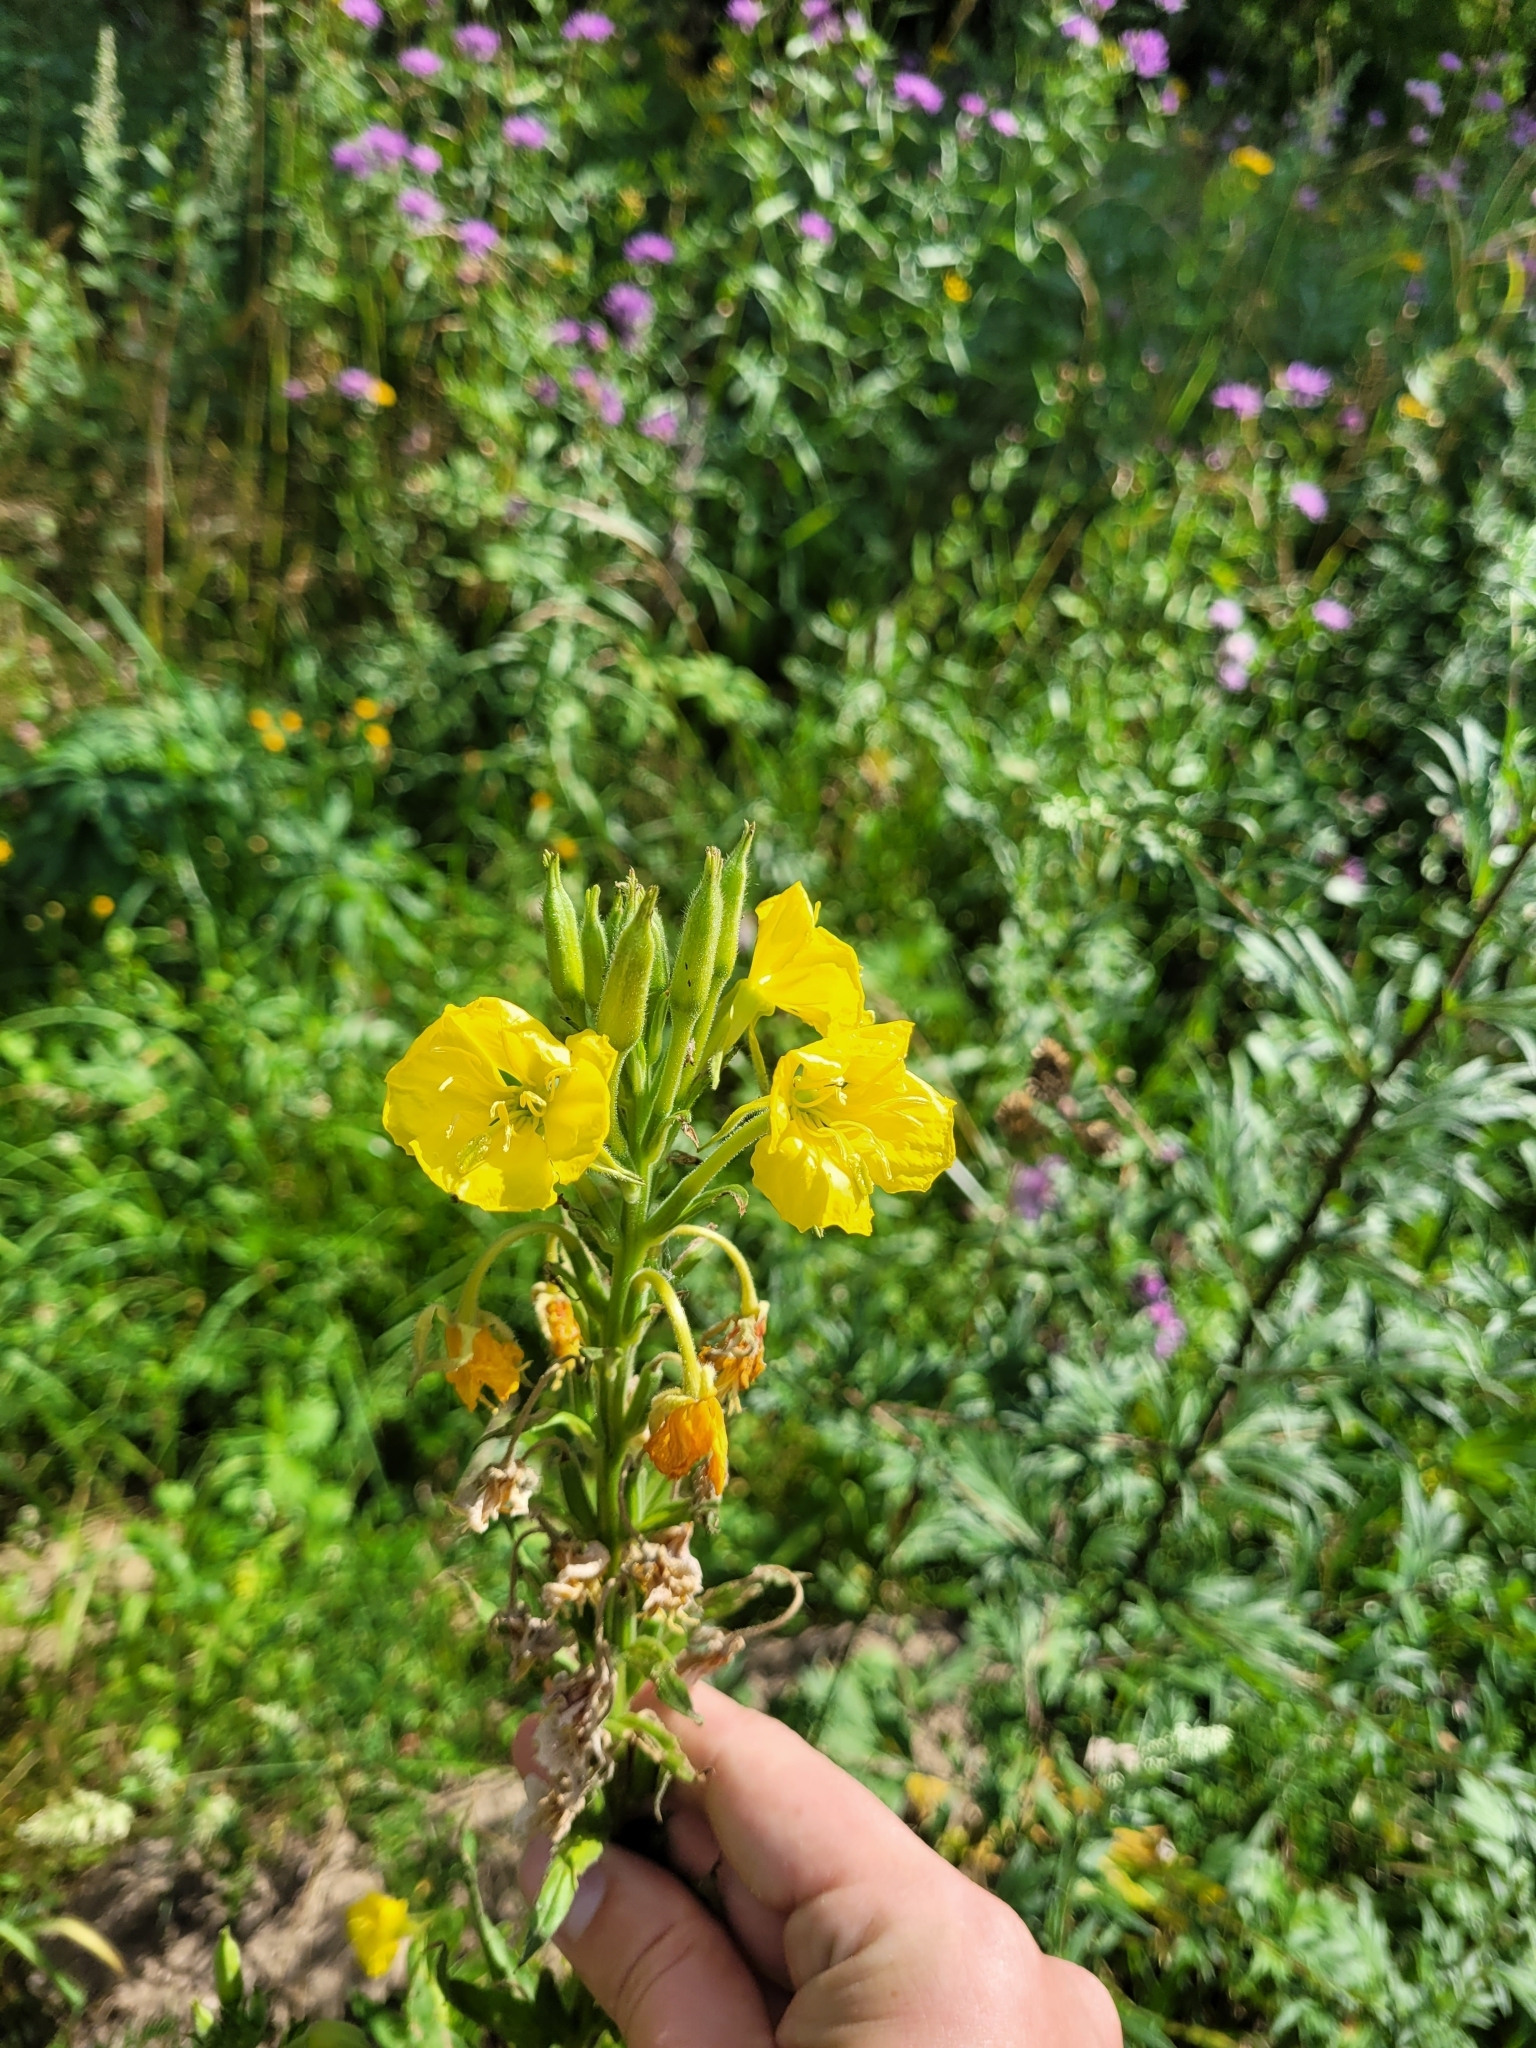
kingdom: Plantae
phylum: Tracheophyta
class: Magnoliopsida
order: Myrtales
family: Onagraceae
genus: Oenothera
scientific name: Oenothera biennis
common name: Common evening-primrose
